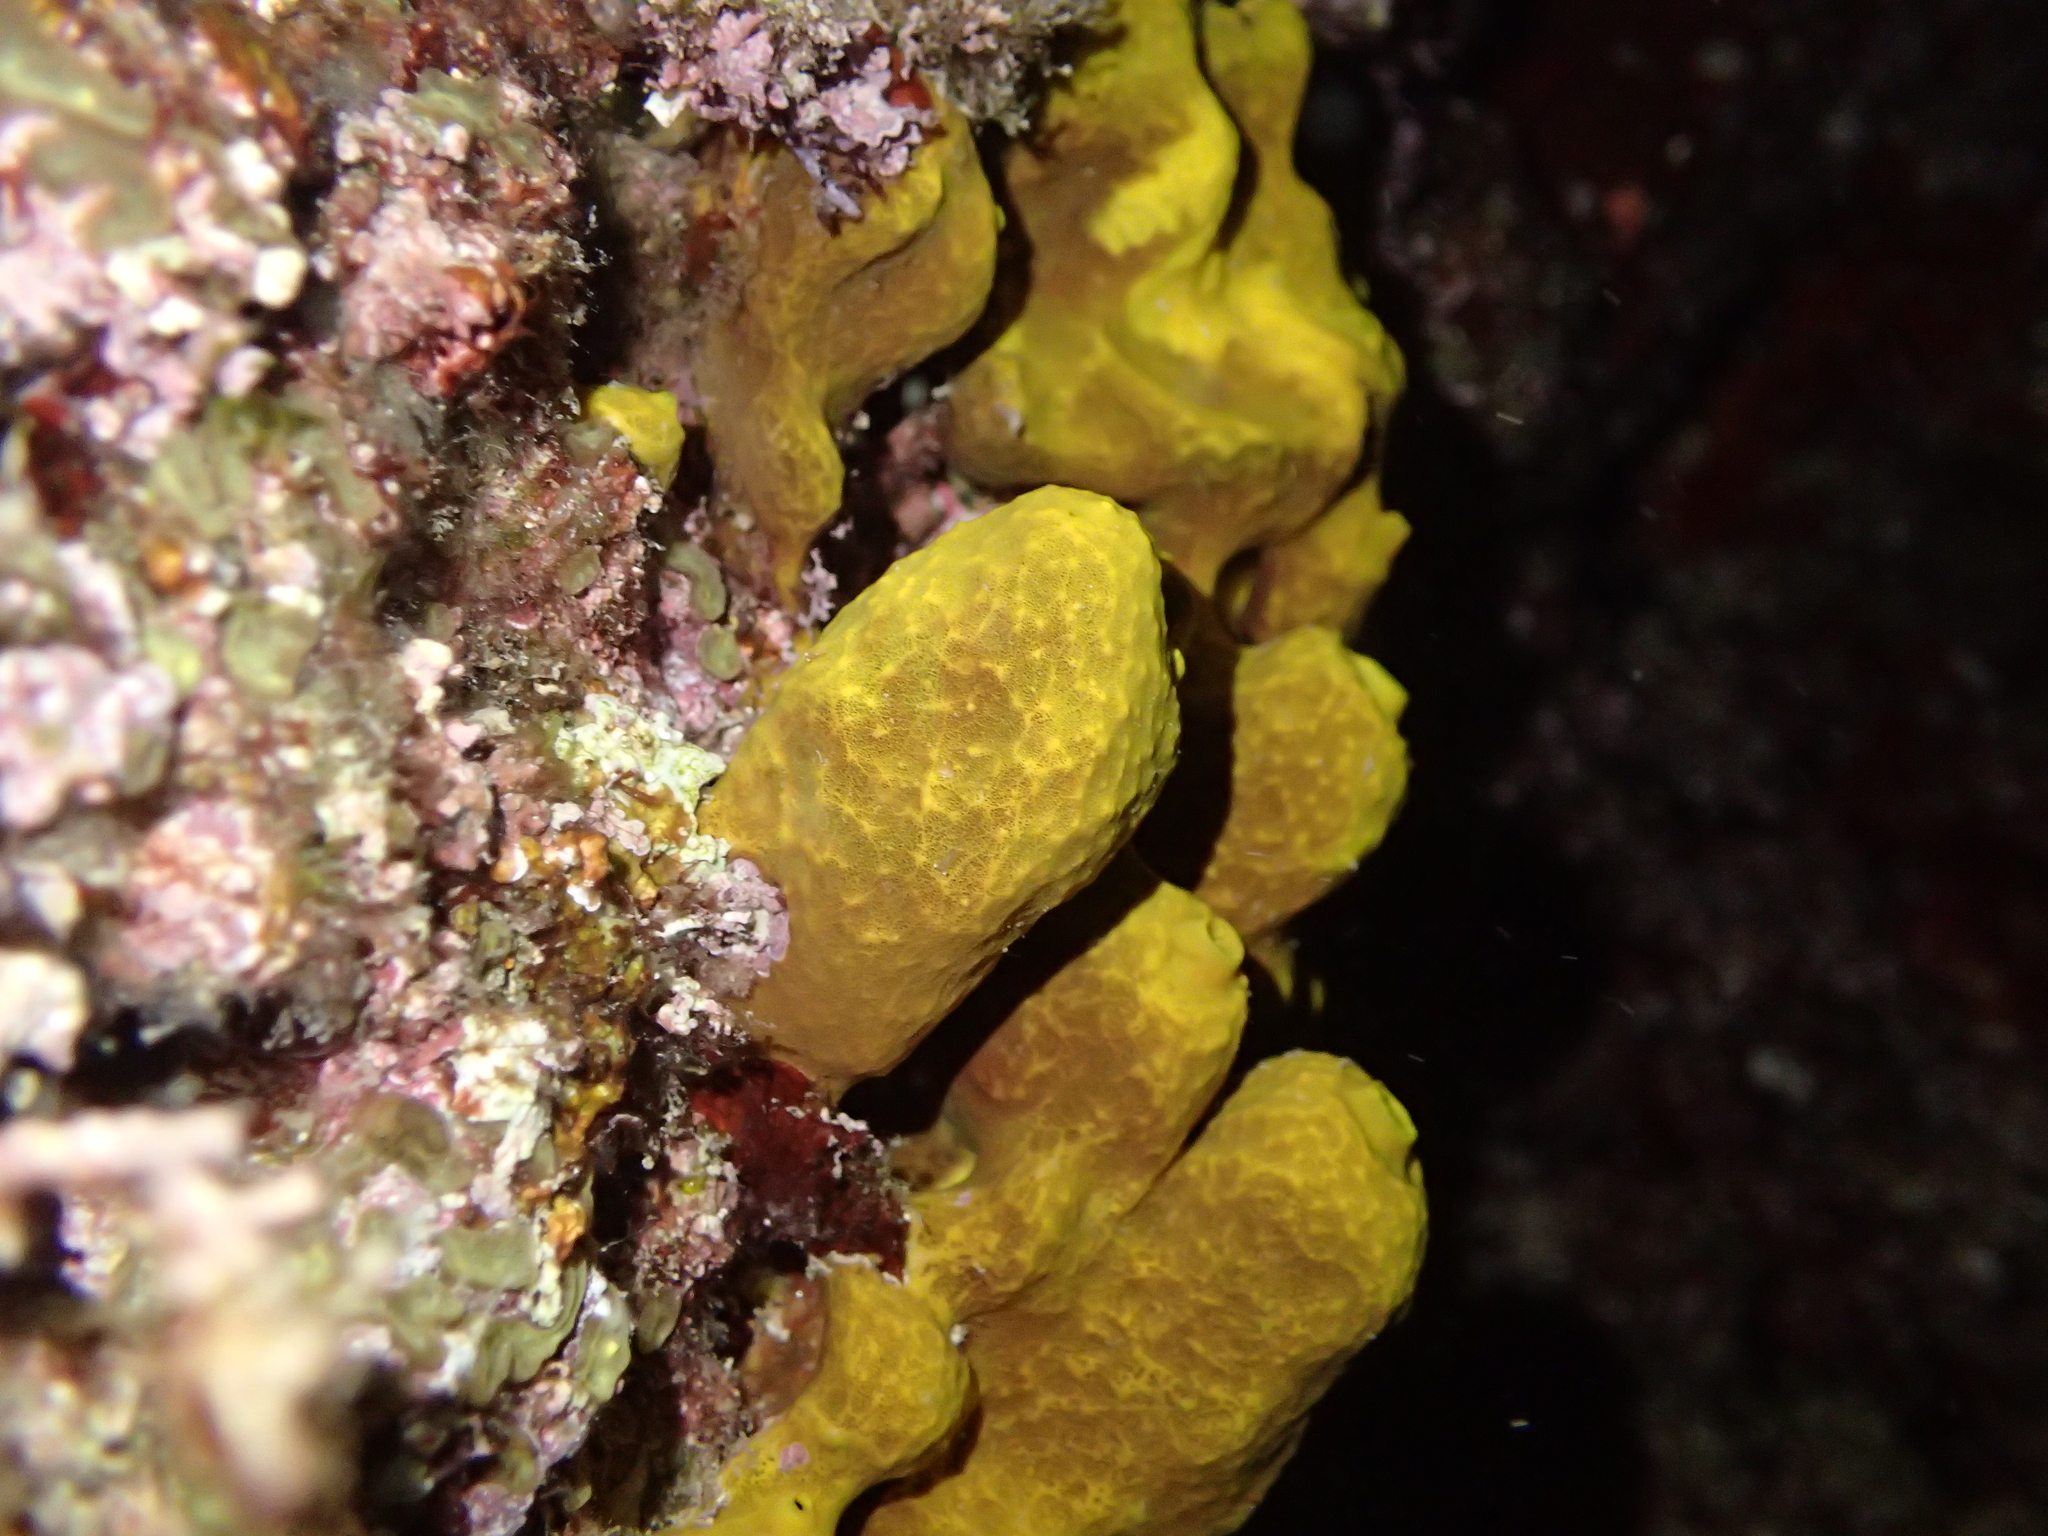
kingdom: Animalia
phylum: Porifera
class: Demospongiae
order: Verongiida
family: Aplysinidae
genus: Aplysina
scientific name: Aplysina aerophoba
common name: Aureate sponge
